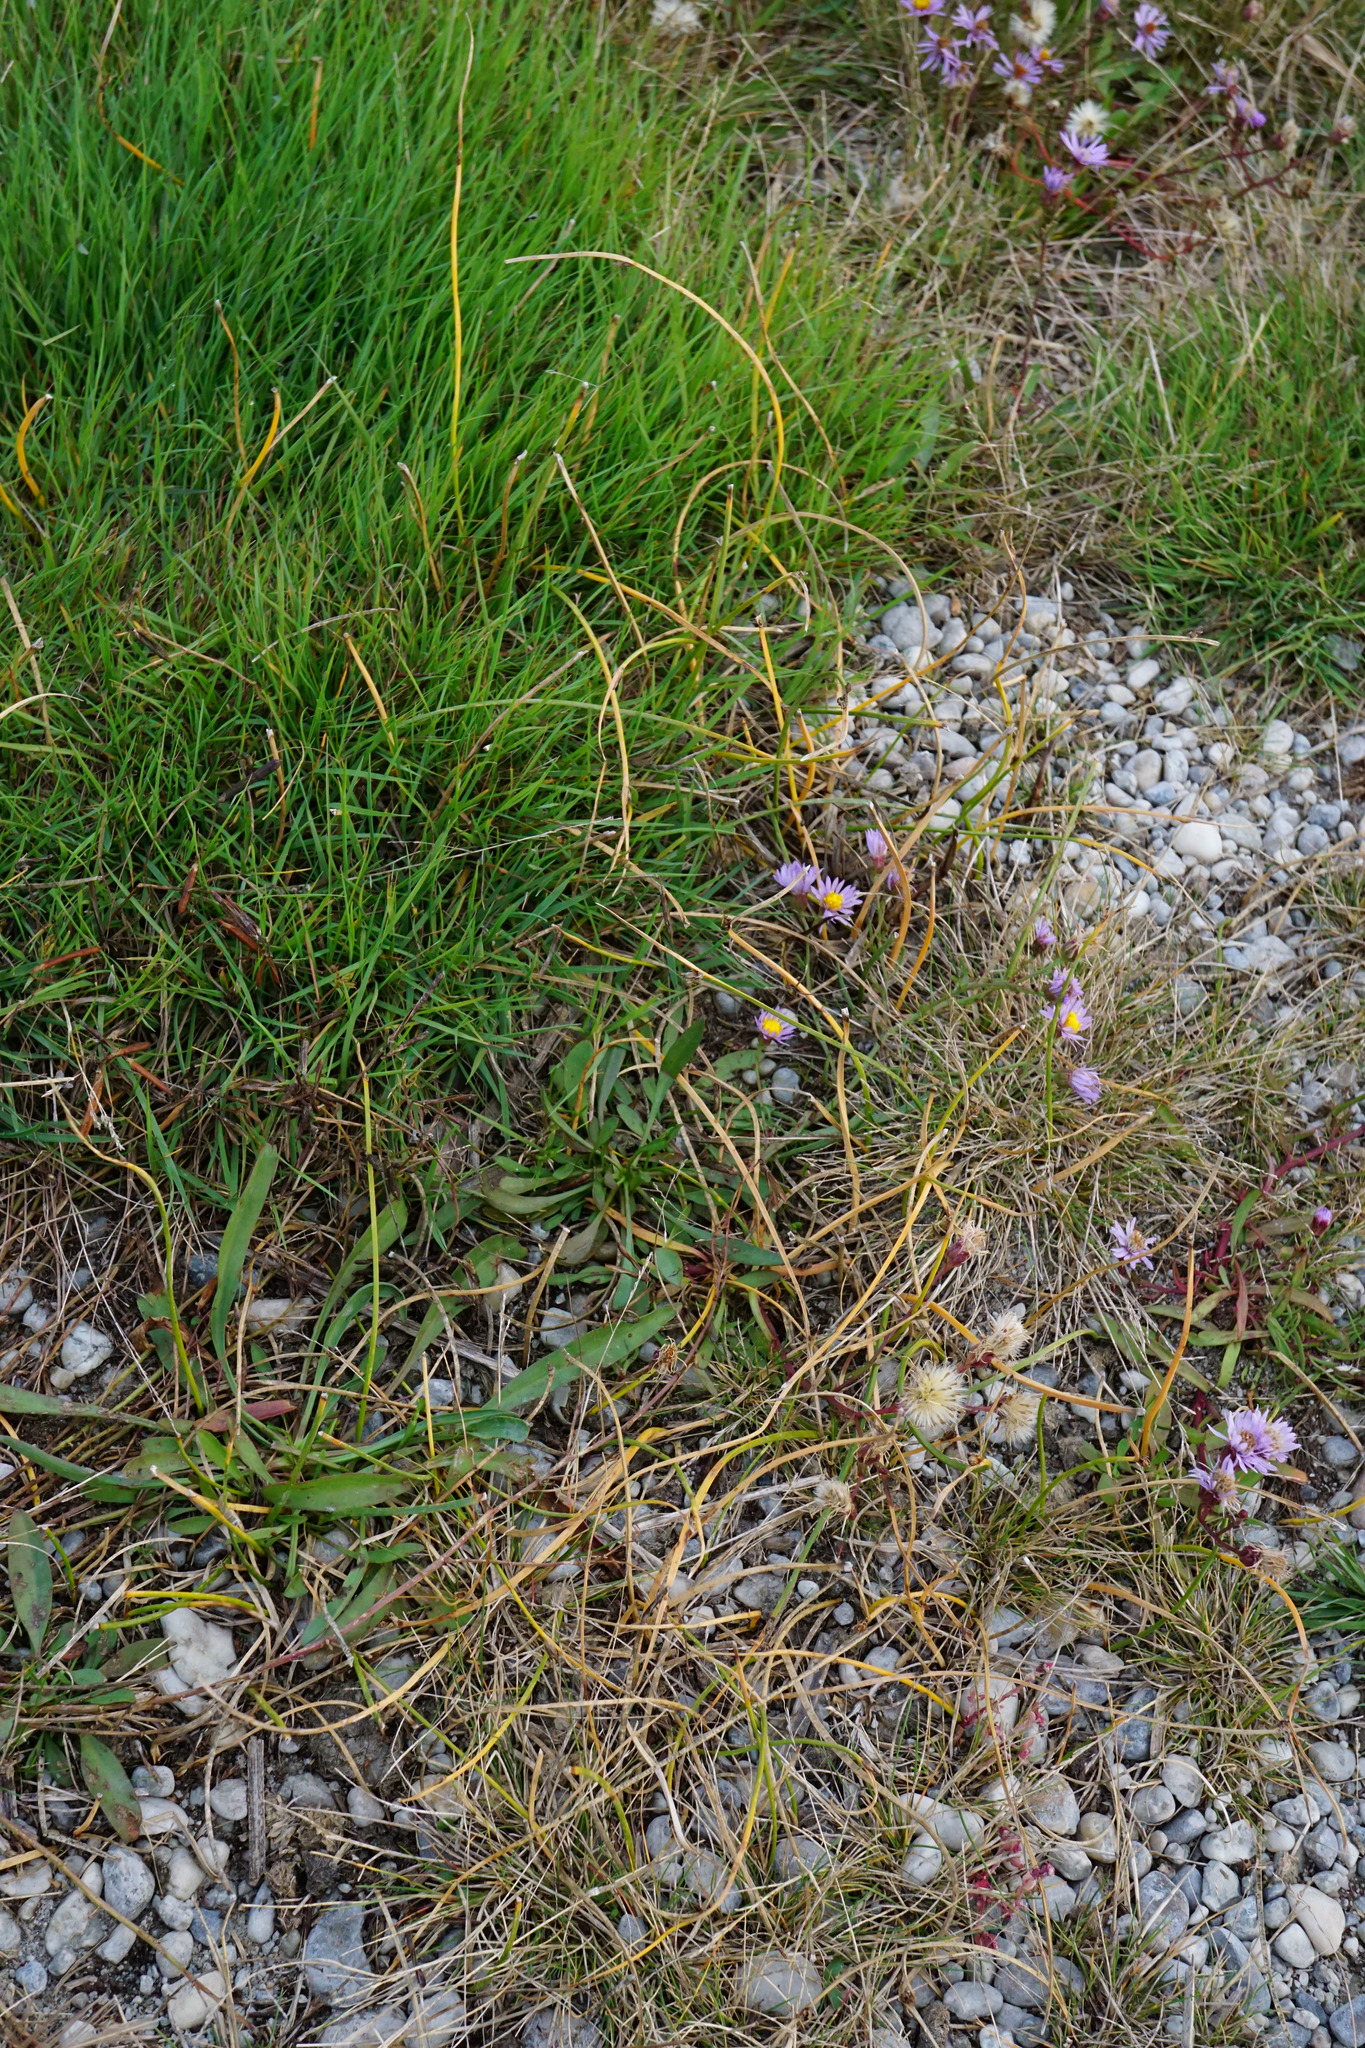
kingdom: Plantae
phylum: Tracheophyta
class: Liliopsida
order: Poales
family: Cyperaceae
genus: Schoenoplectus
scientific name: Schoenoplectus pungens
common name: Sharp club-rush
